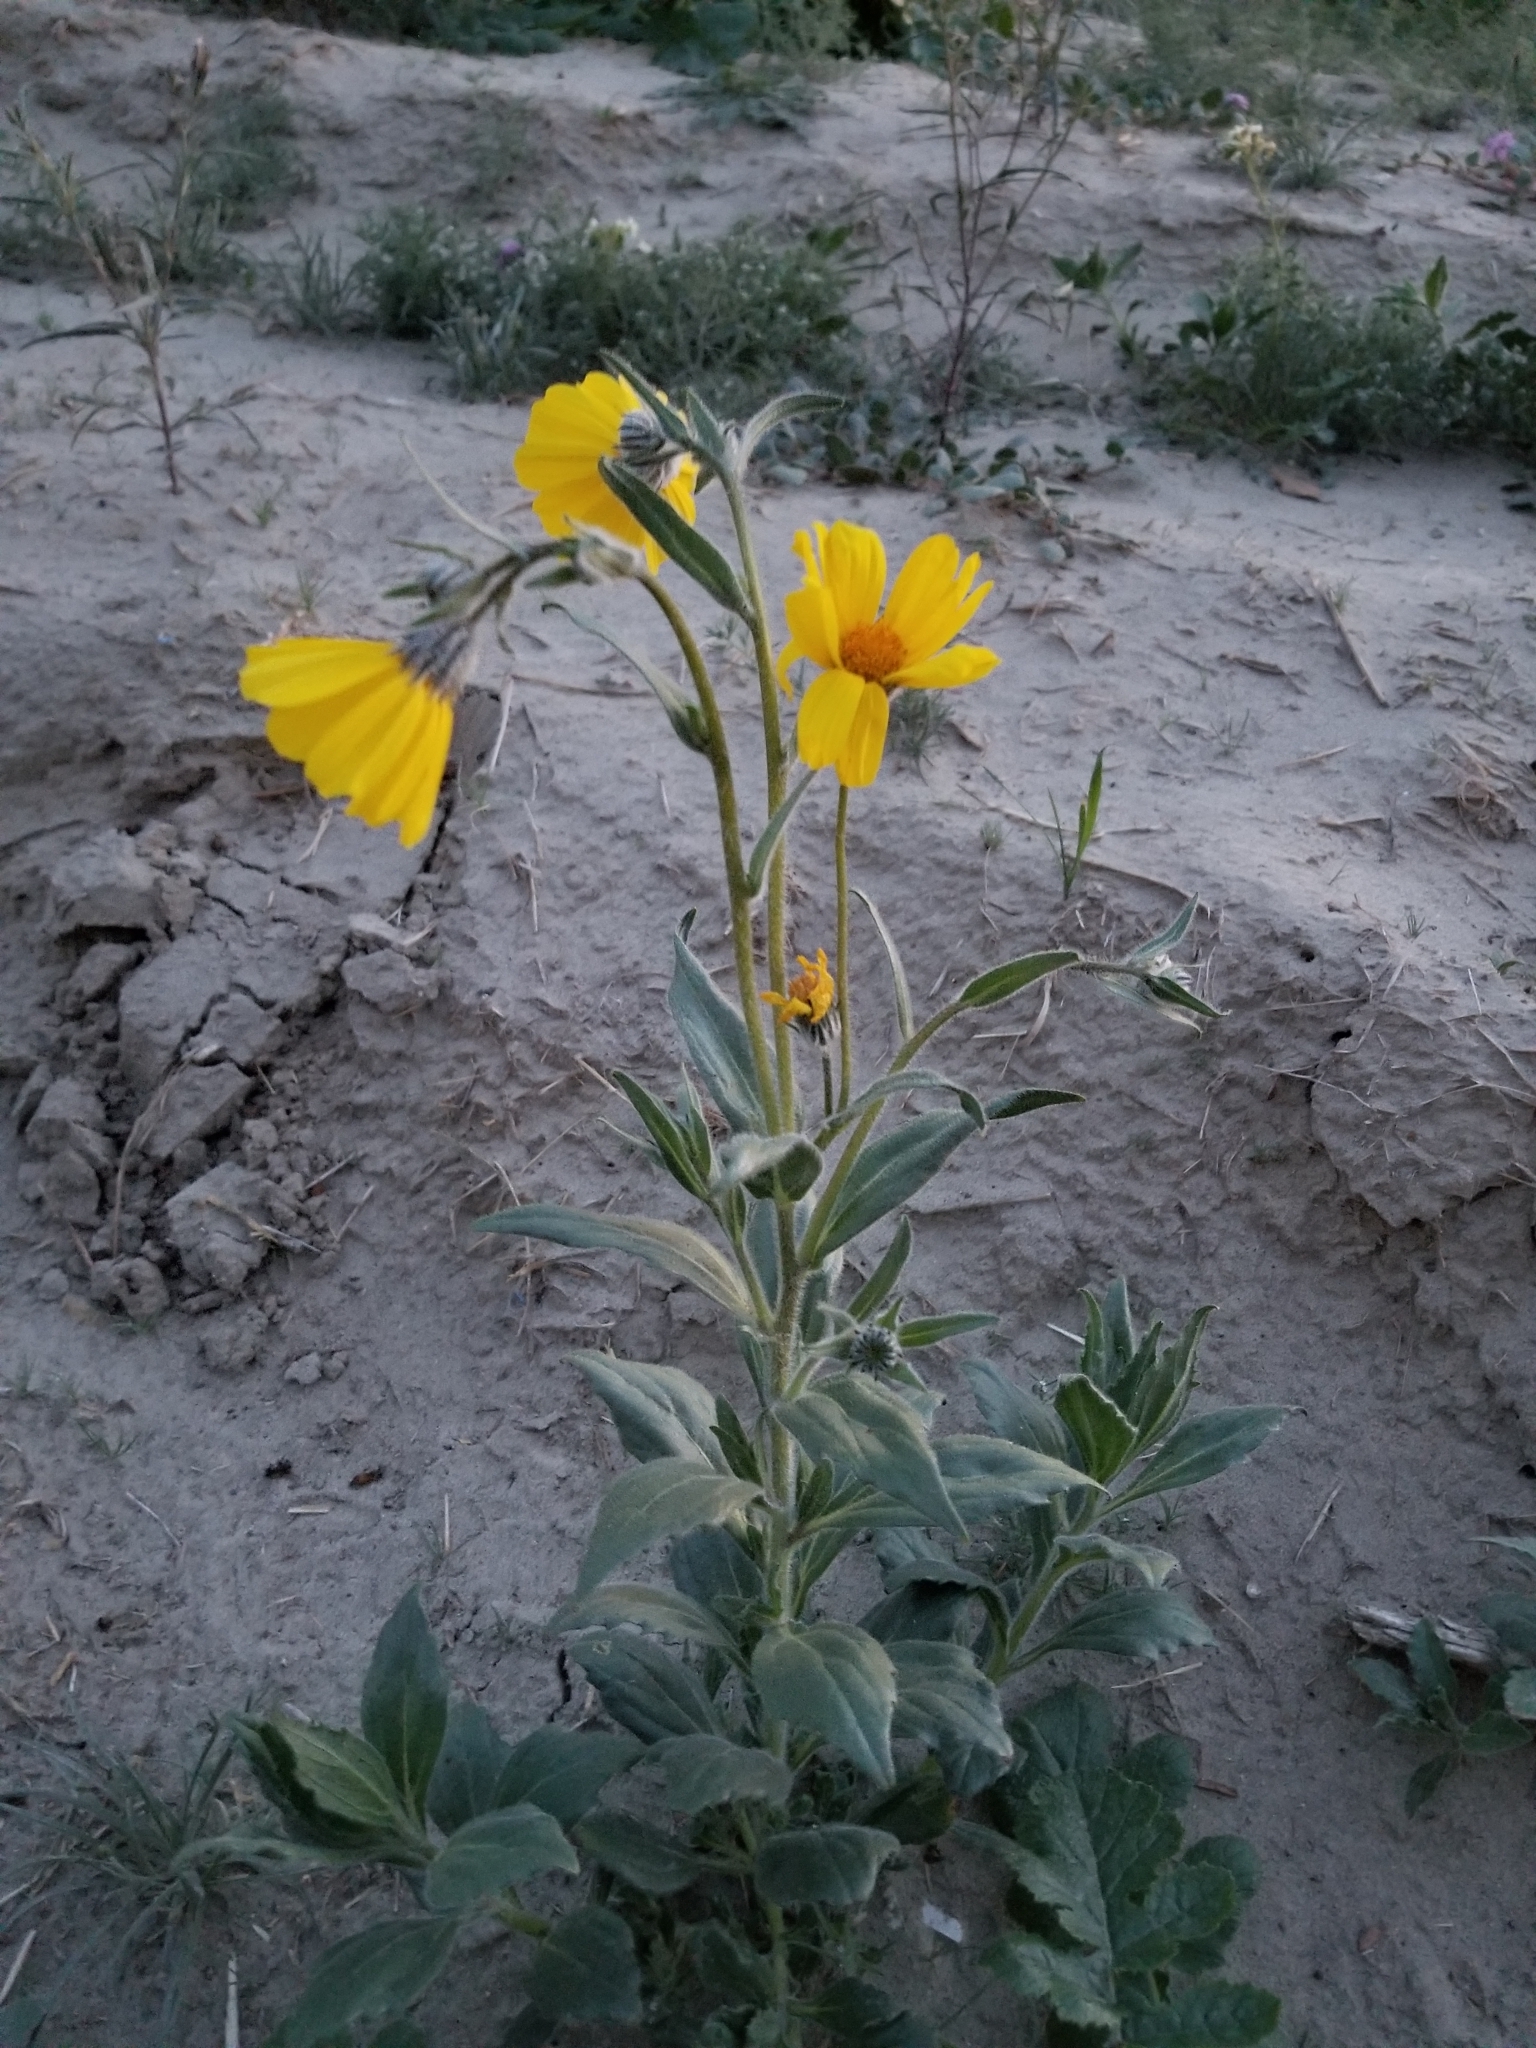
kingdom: Plantae
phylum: Tracheophyta
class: Magnoliopsida
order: Asterales
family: Asteraceae
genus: Geraea
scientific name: Geraea canescens
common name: Desert-gold
